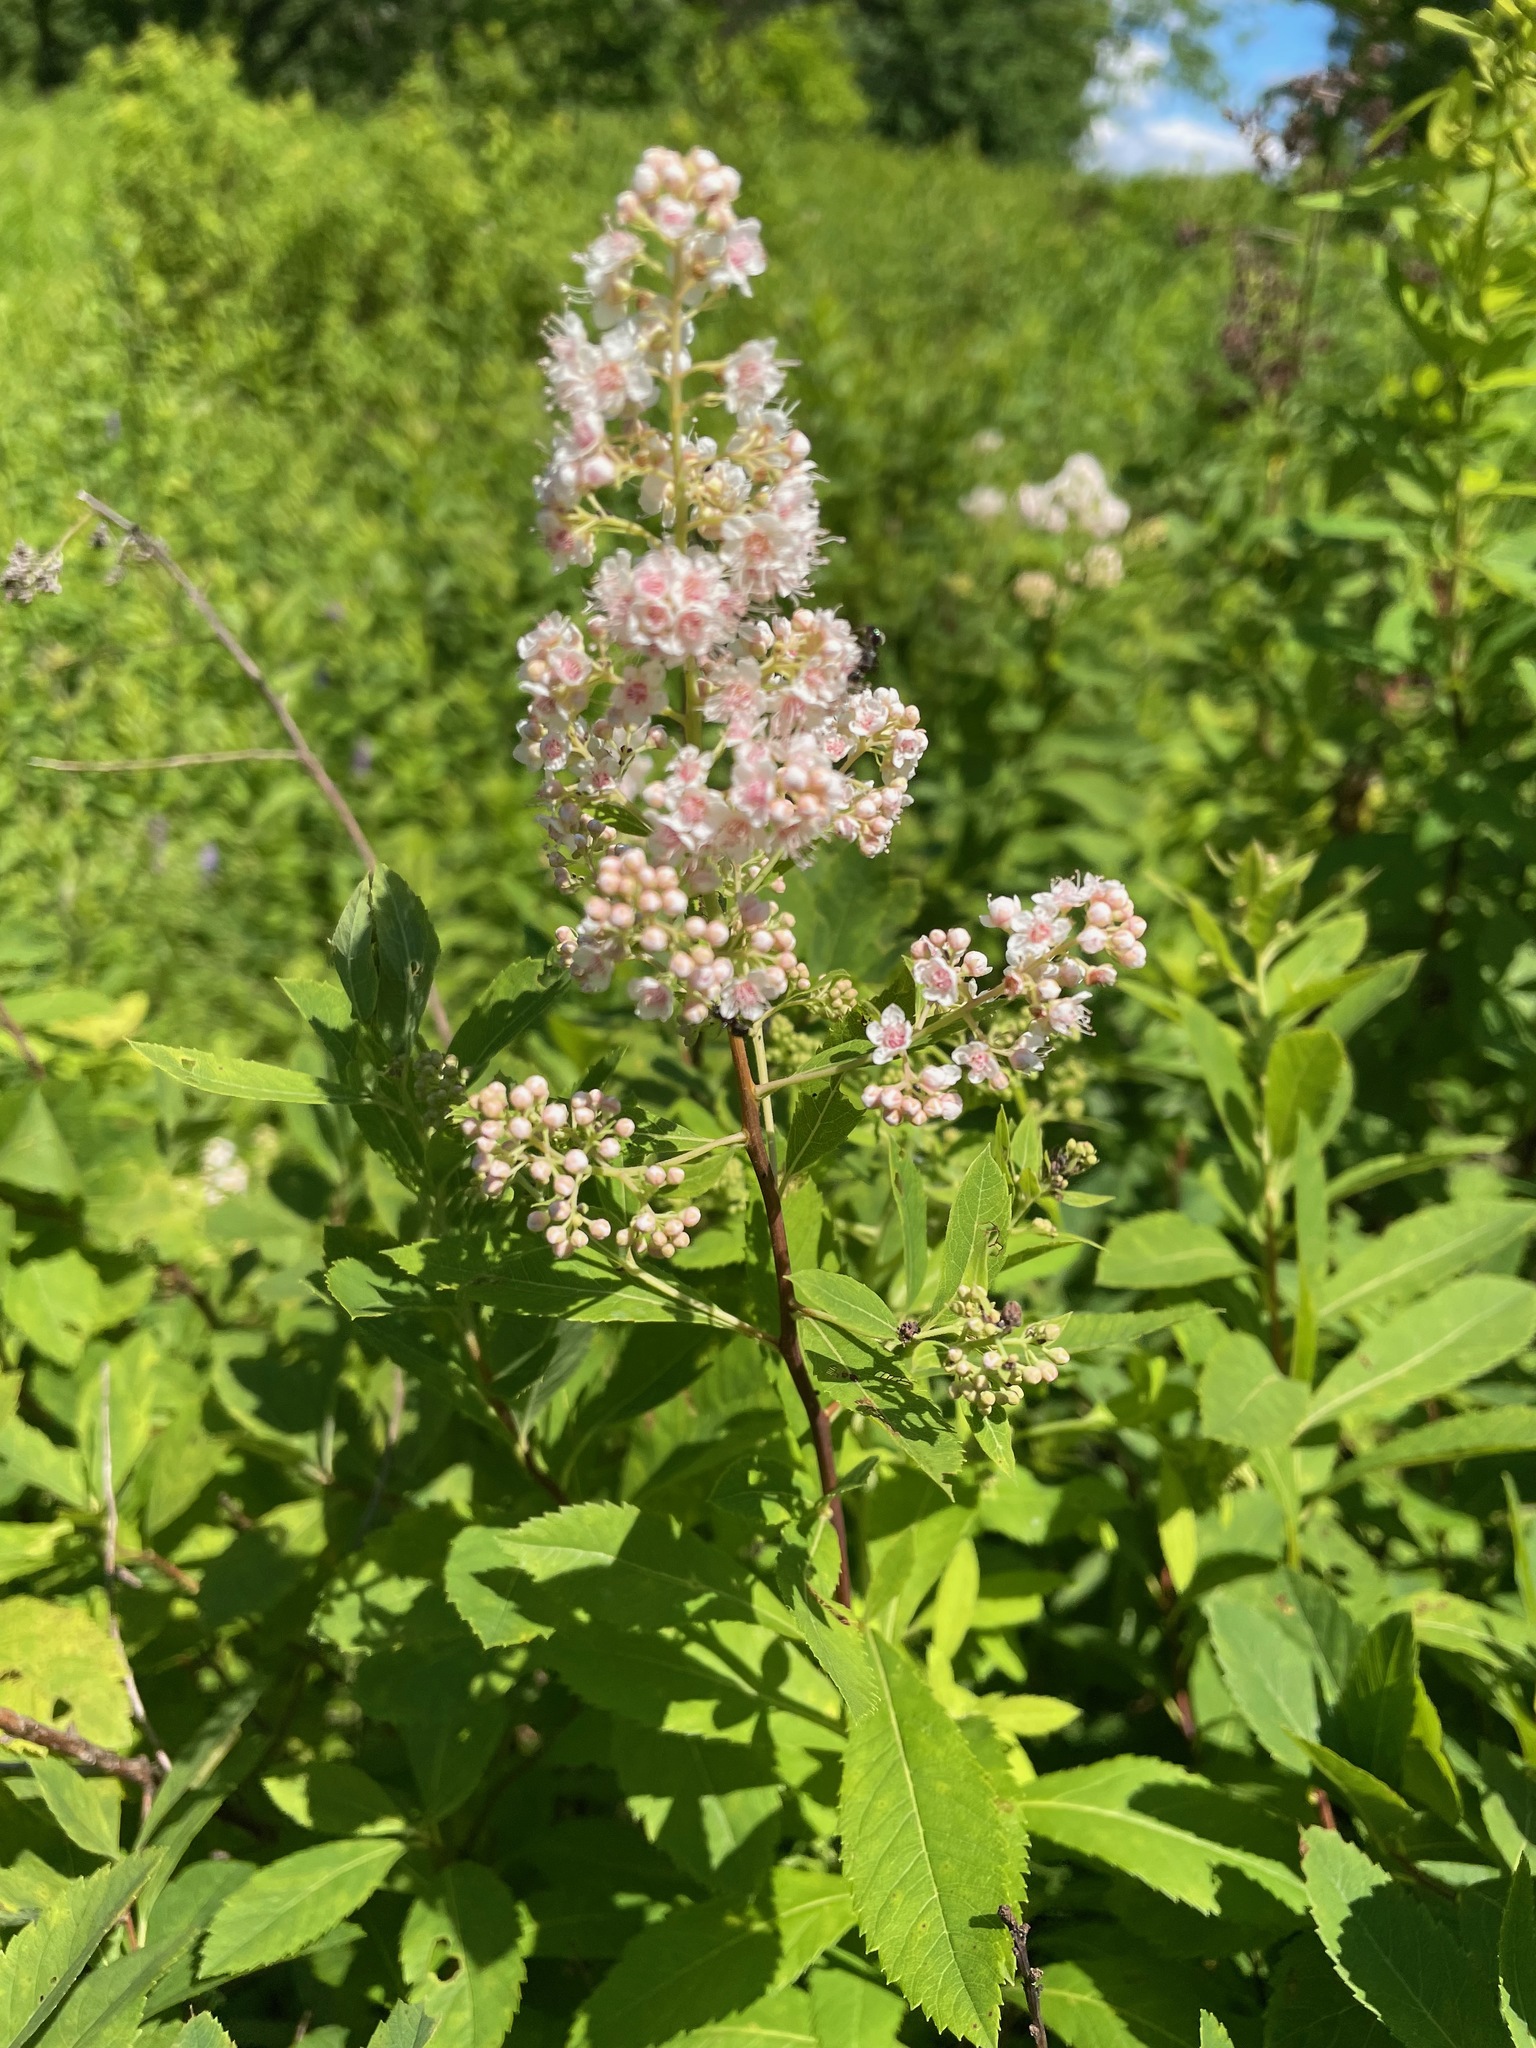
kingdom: Plantae
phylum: Tracheophyta
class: Magnoliopsida
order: Rosales
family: Rosaceae
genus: Spiraea
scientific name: Spiraea alba
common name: Pale bridewort
